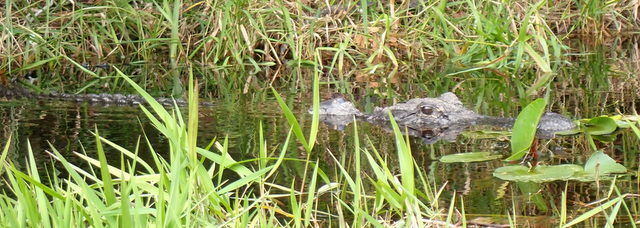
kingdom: Animalia
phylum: Chordata
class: Crocodylia
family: Alligatoridae
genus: Alligator
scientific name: Alligator mississippiensis
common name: American alligator
